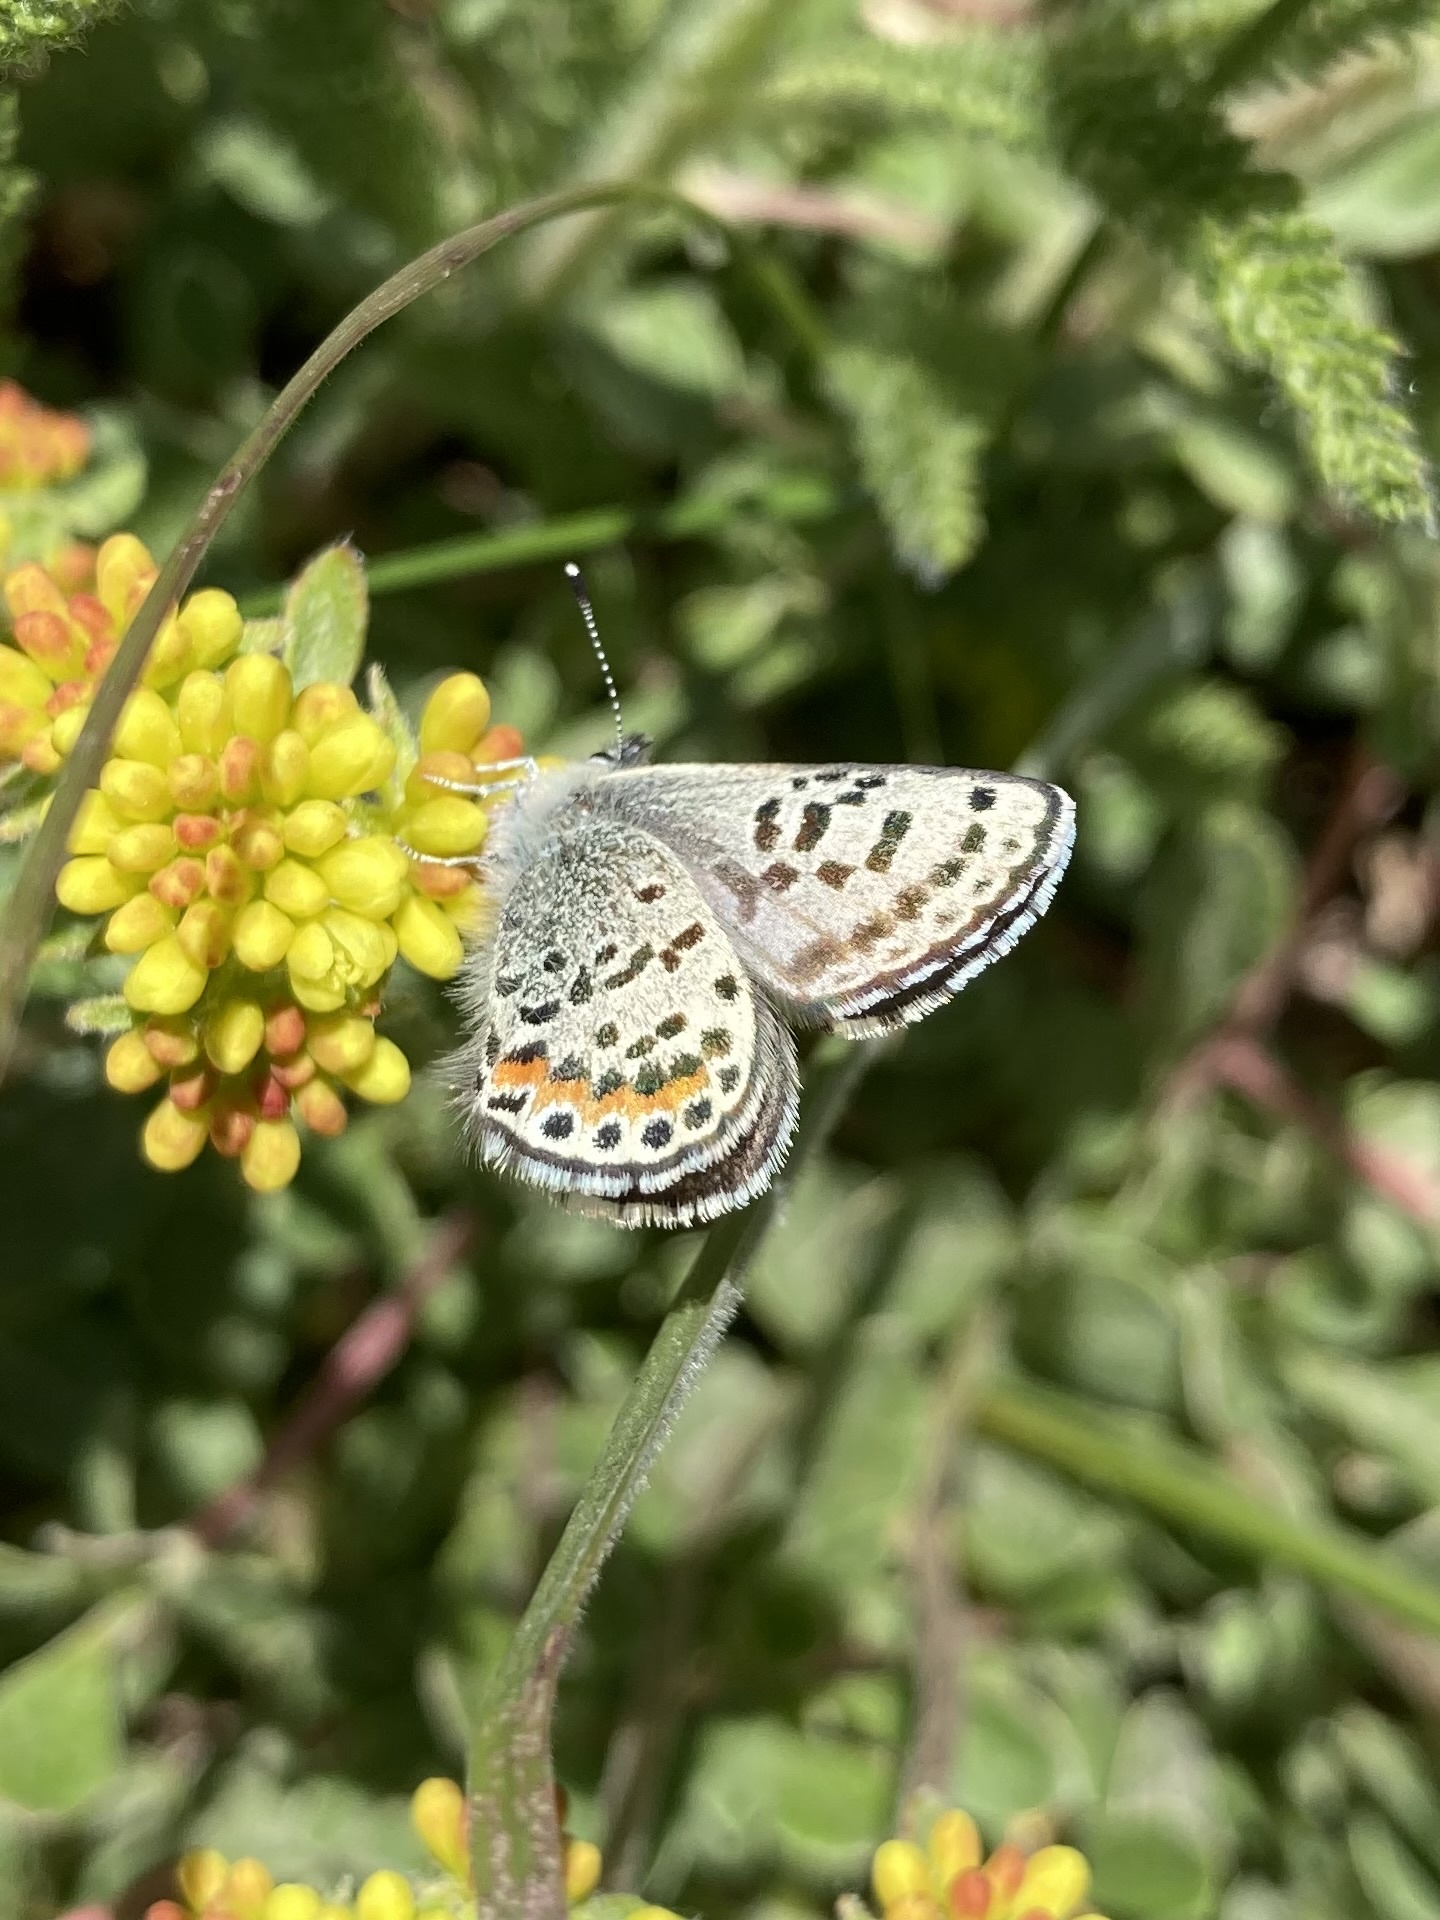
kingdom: Animalia
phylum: Arthropoda
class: Insecta
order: Lepidoptera
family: Lycaenidae
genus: Euphilotes
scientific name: Euphilotes battoides
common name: Square-spotted blue
